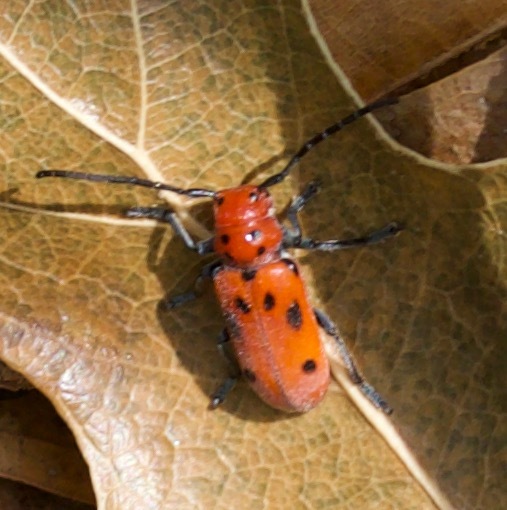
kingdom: Animalia
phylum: Arthropoda
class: Insecta
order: Coleoptera
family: Cerambycidae
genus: Tetraopes
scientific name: Tetraopes tetrophthalmus
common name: Red milkweed beetle
